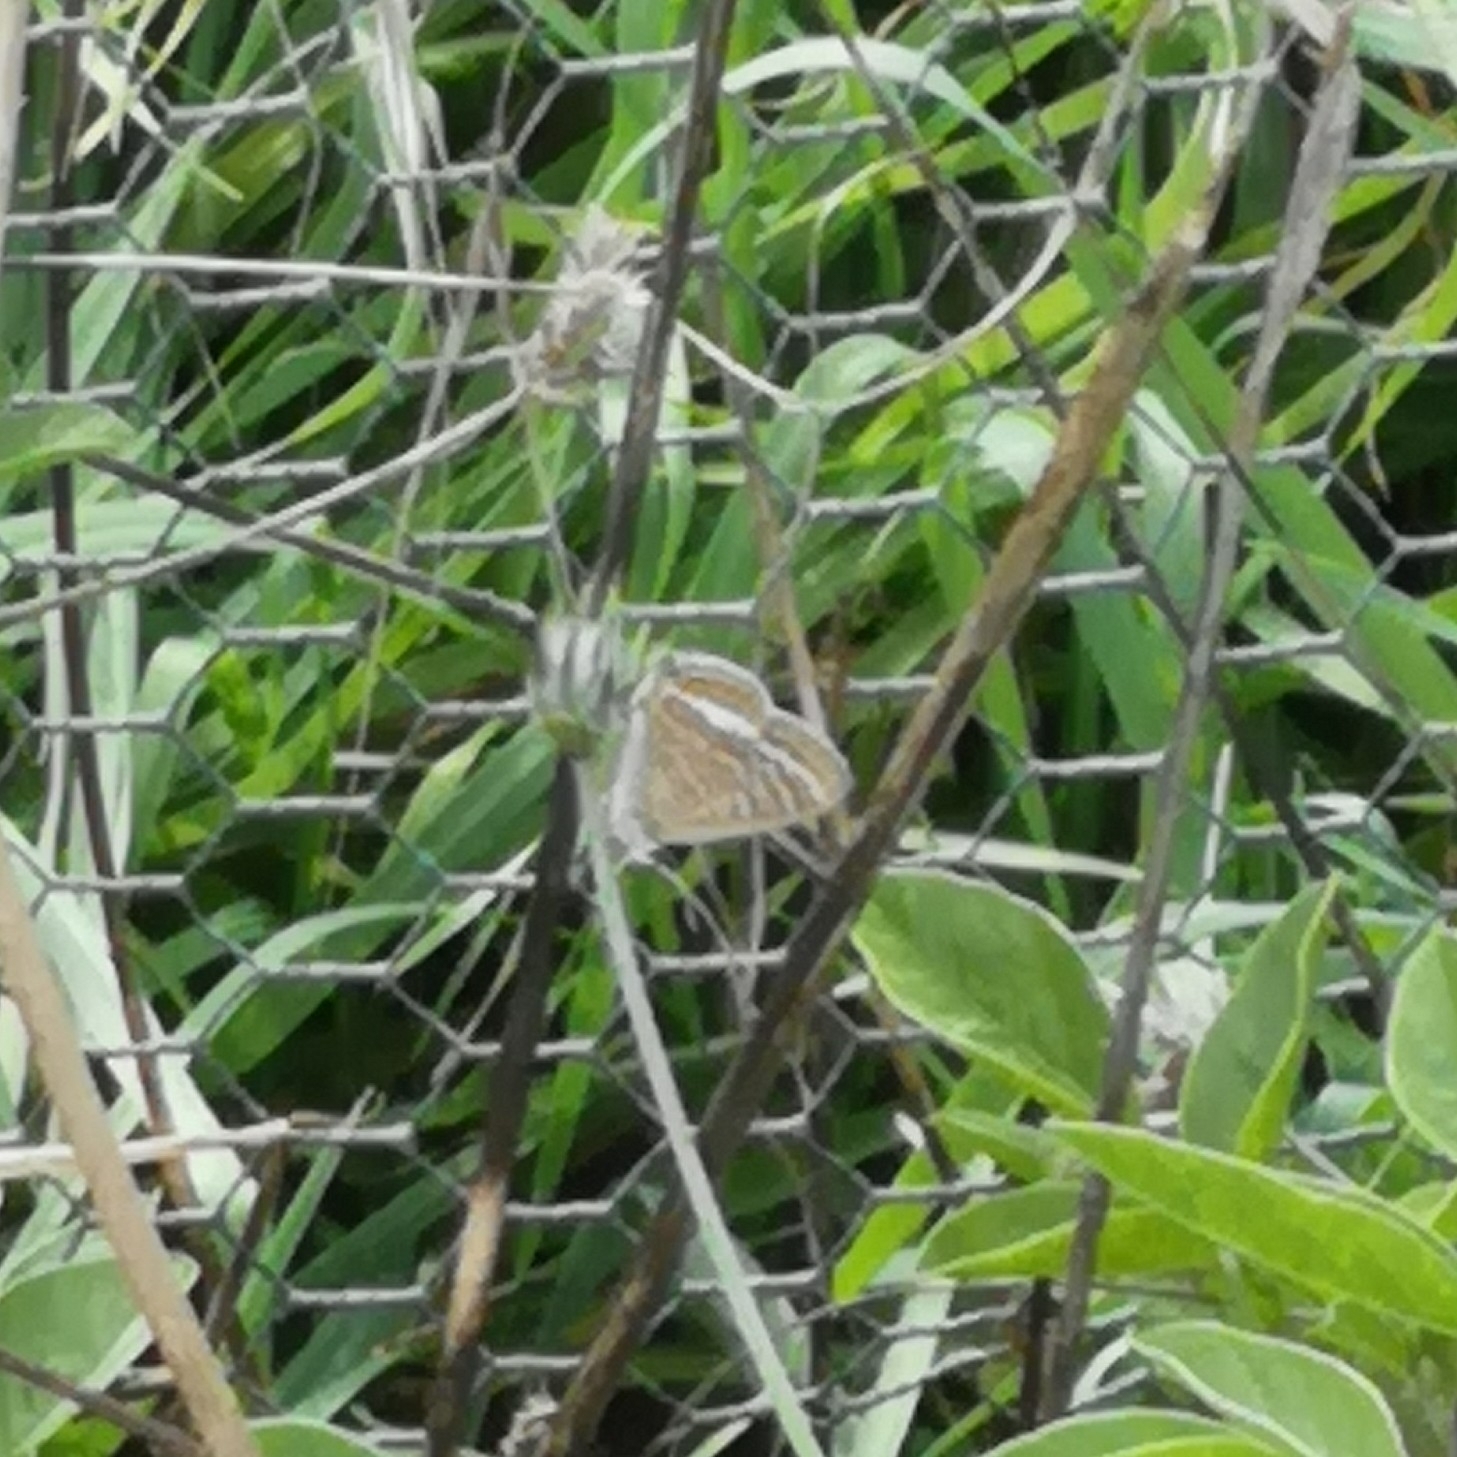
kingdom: Animalia
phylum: Arthropoda
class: Insecta
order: Lepidoptera
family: Lycaenidae
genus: Lampides
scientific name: Lampides boeticus
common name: Long-tailed blue
